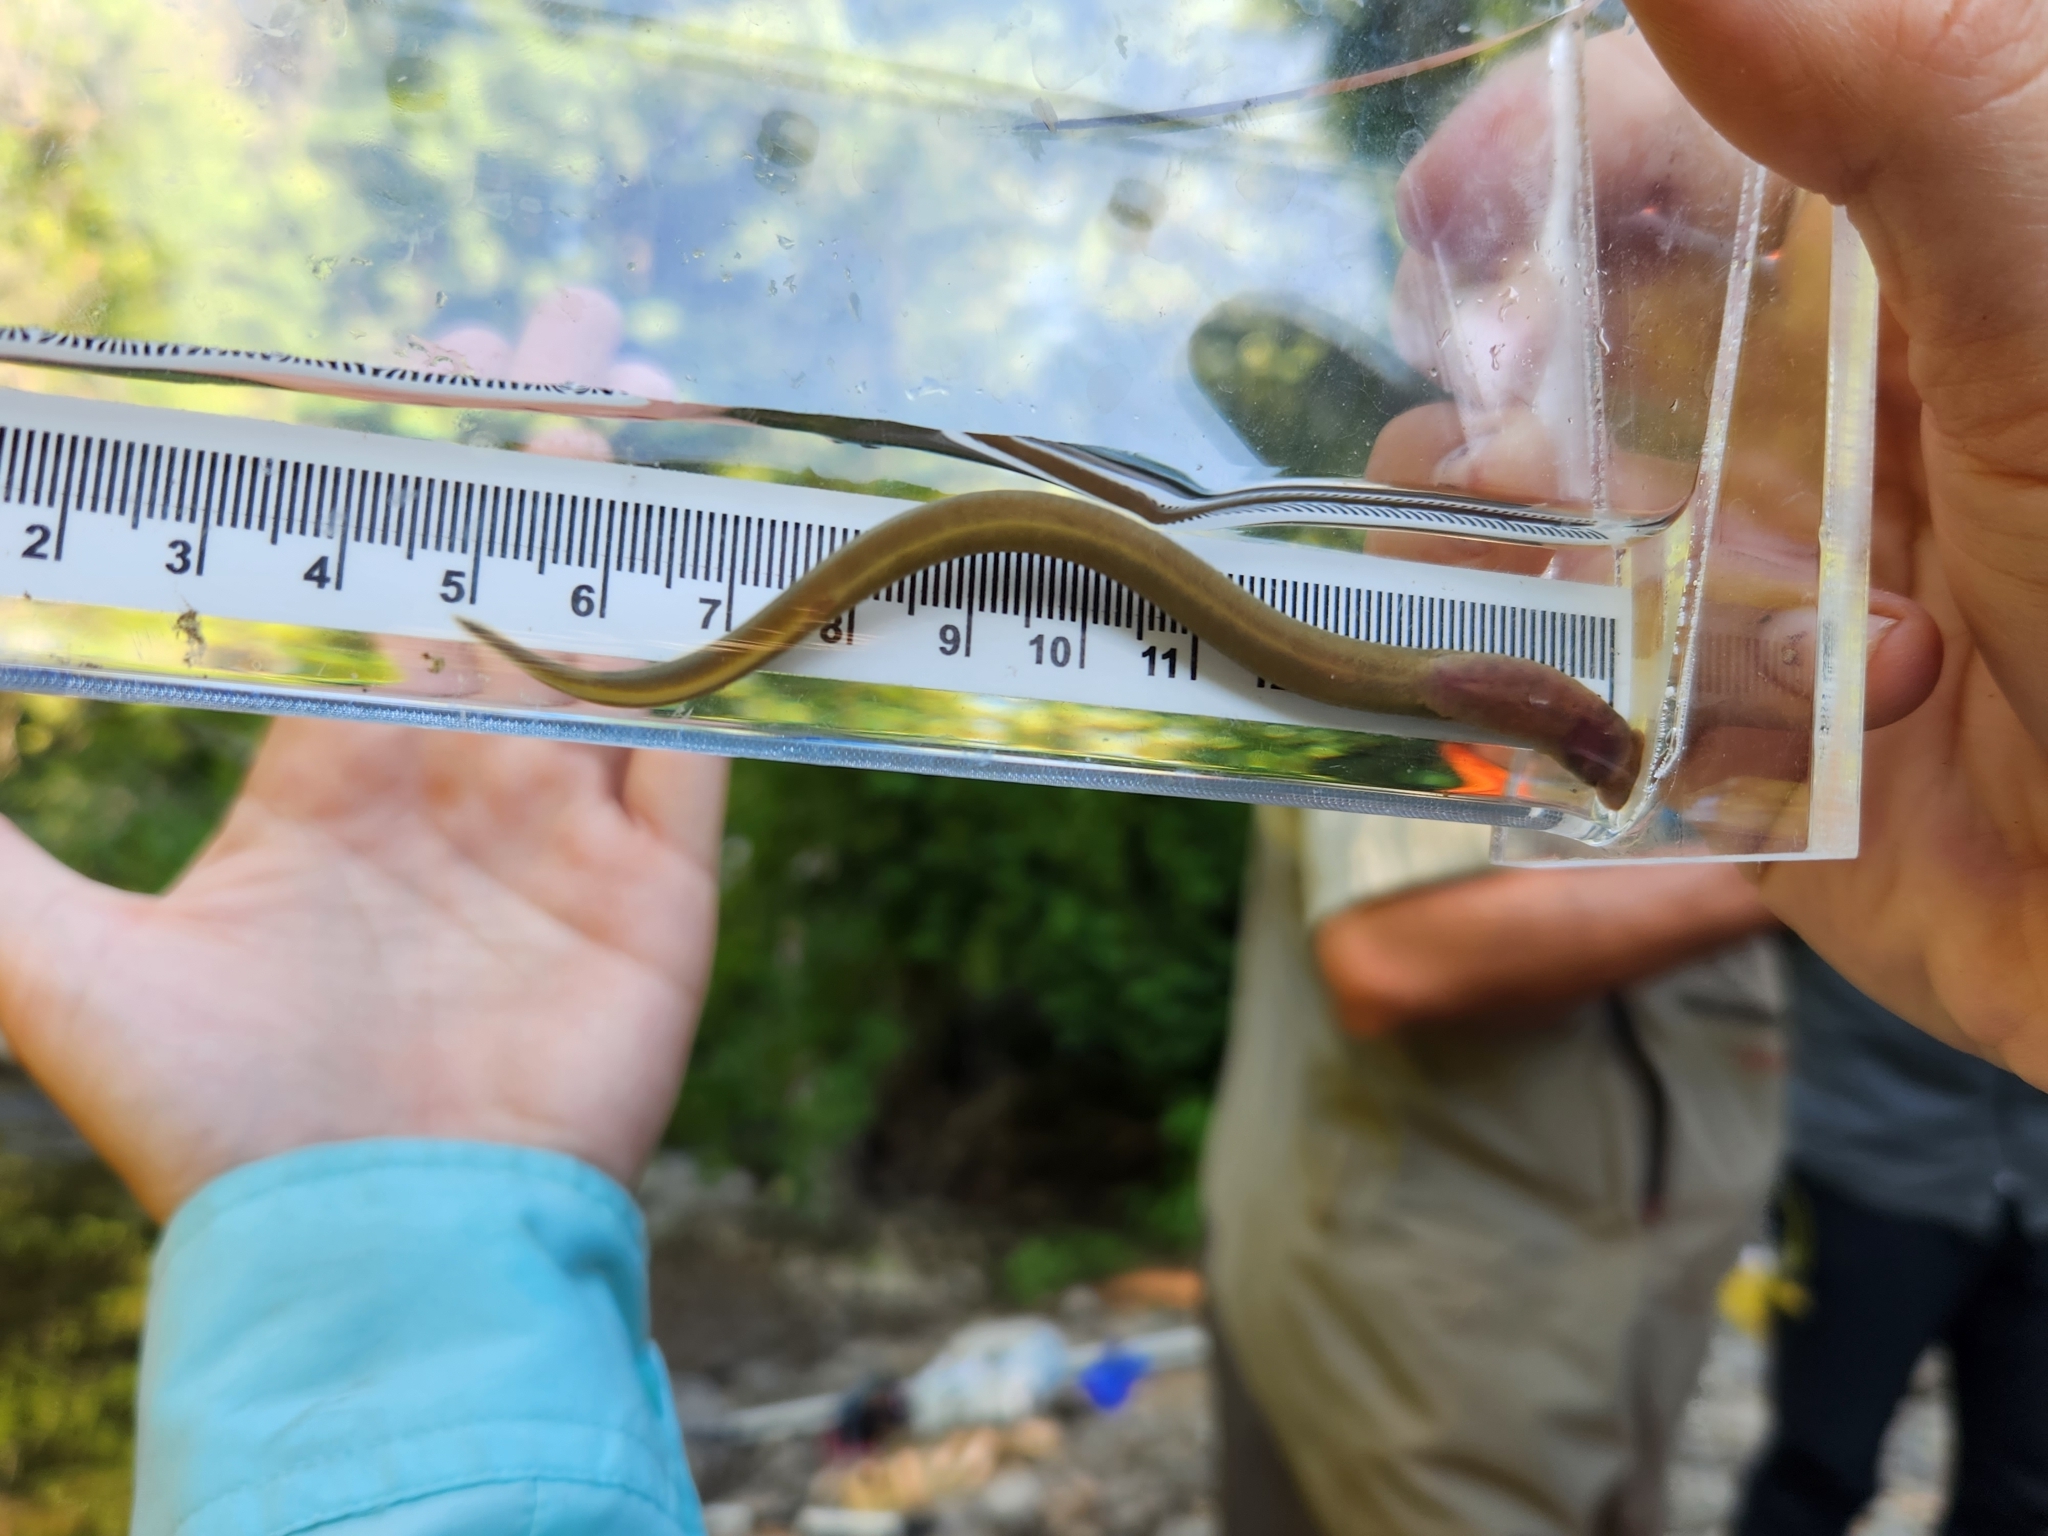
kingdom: Animalia
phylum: Chordata
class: Petromyzonti
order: Petromyzontiformes
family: Petromyzontidae
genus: Lampetra
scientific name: Lampetra richardsoni
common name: Western brook lamprey
